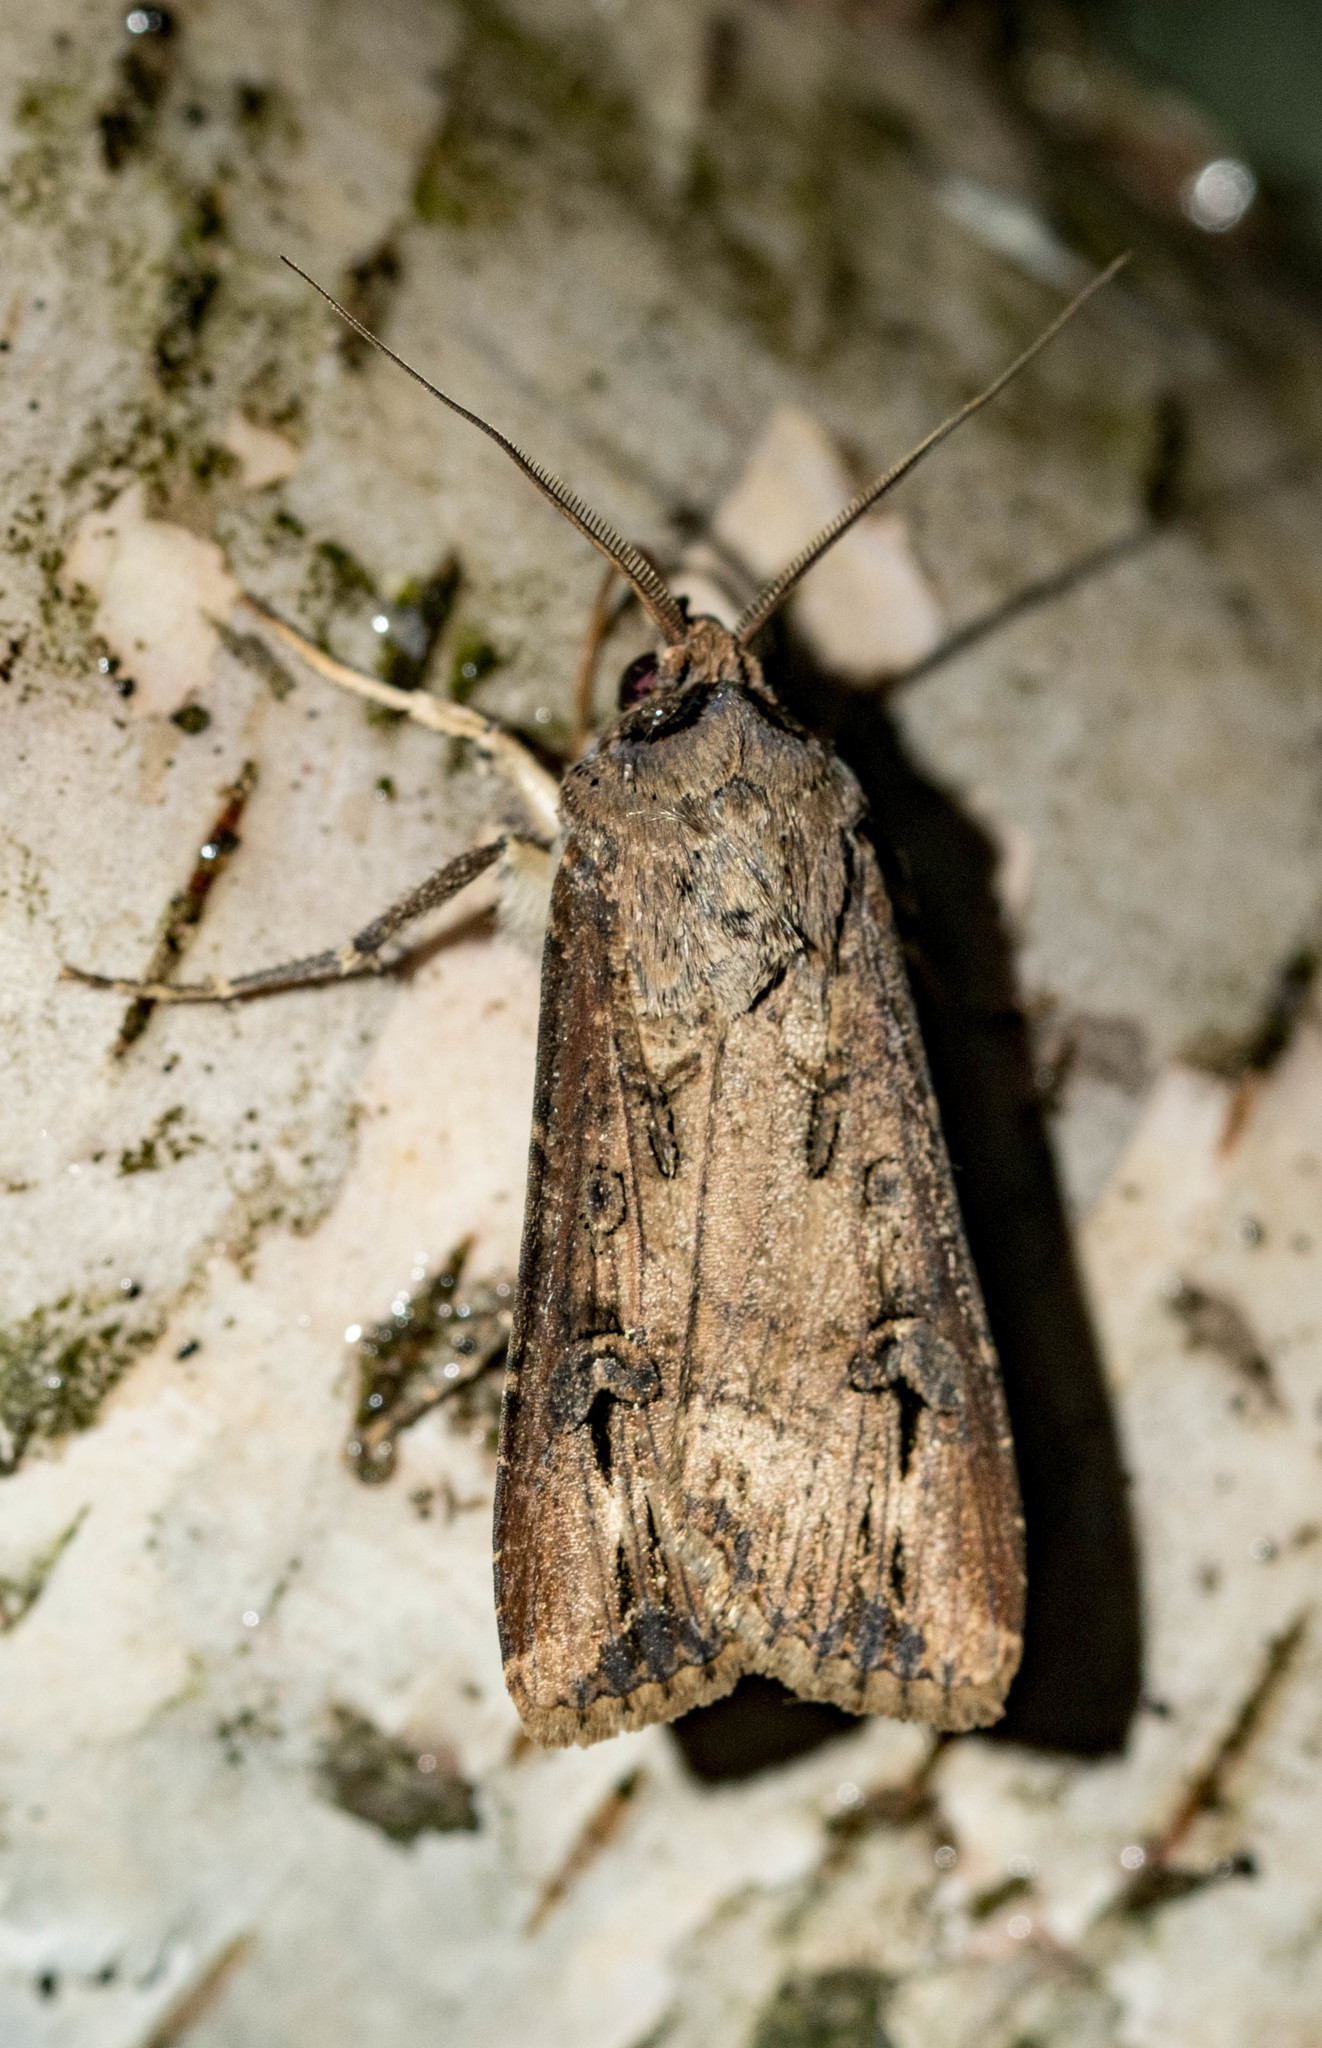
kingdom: Animalia
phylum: Arthropoda
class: Insecta
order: Lepidoptera
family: Noctuidae
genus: Agrotis
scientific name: Agrotis ipsilon
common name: Dark sword-grass
